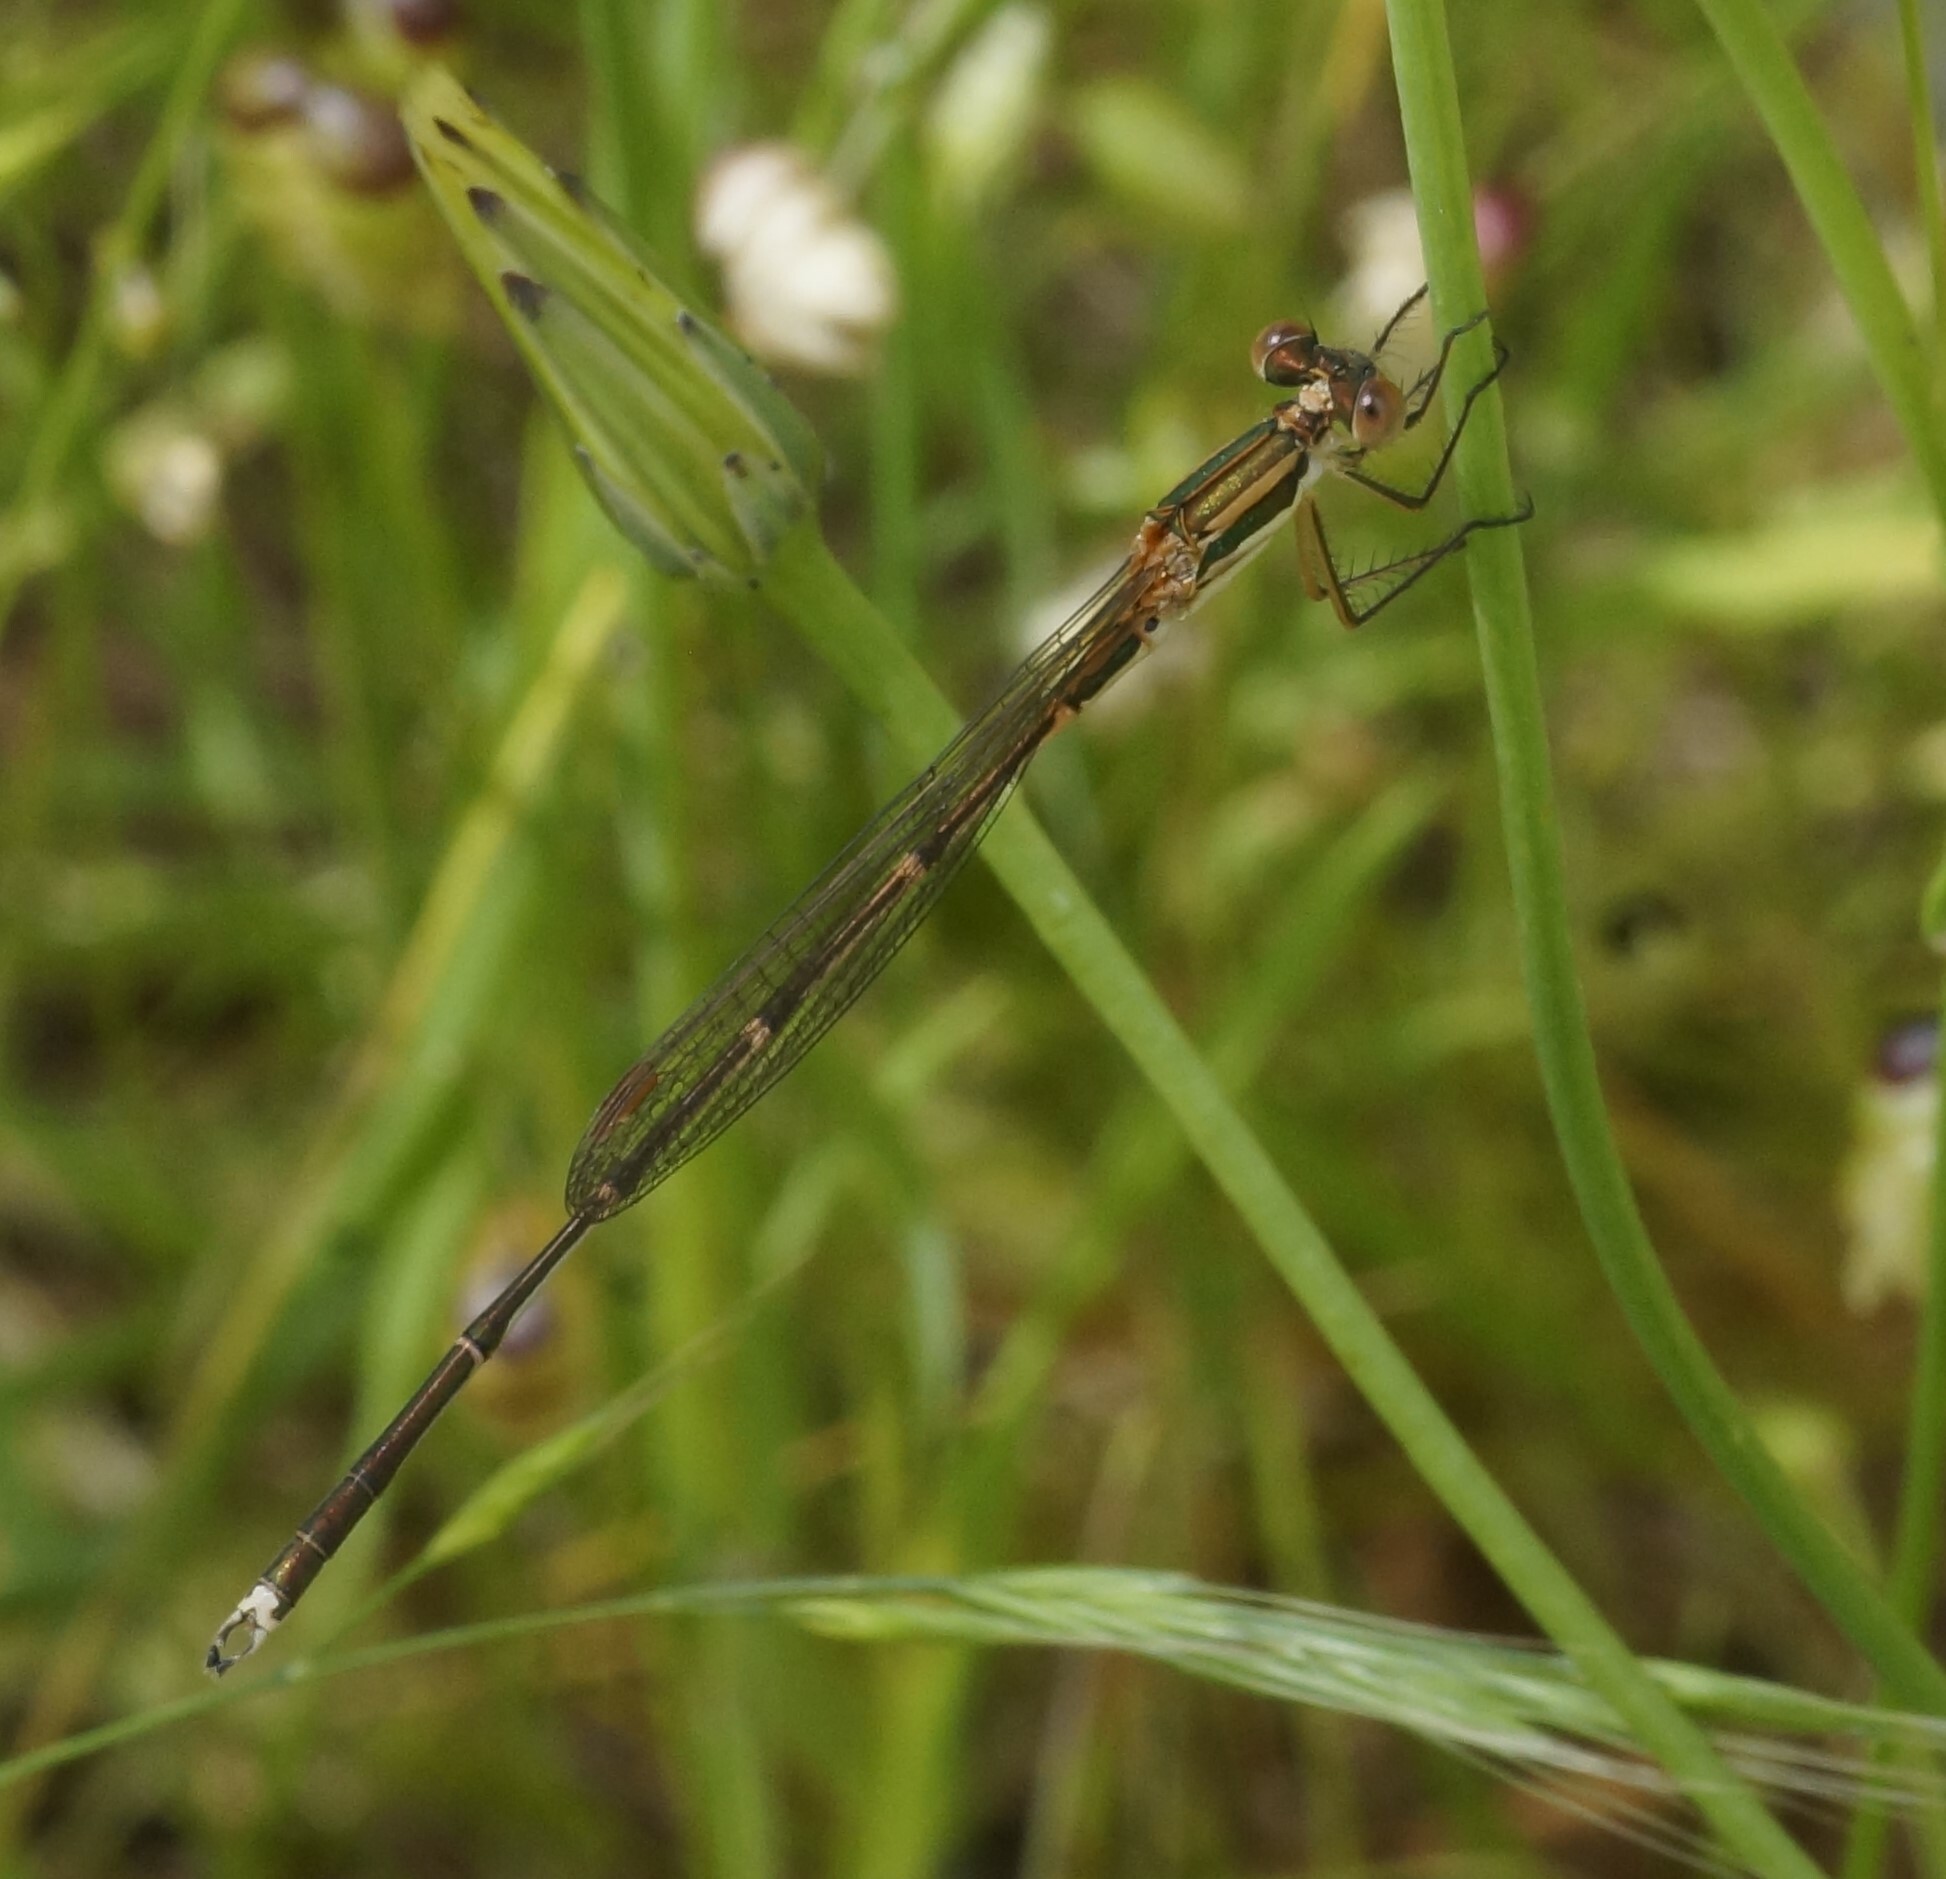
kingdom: Animalia
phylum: Arthropoda
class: Insecta
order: Odonata
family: Lestidae
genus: Austrolestes
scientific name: Austrolestes analis
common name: Slender ringtail
